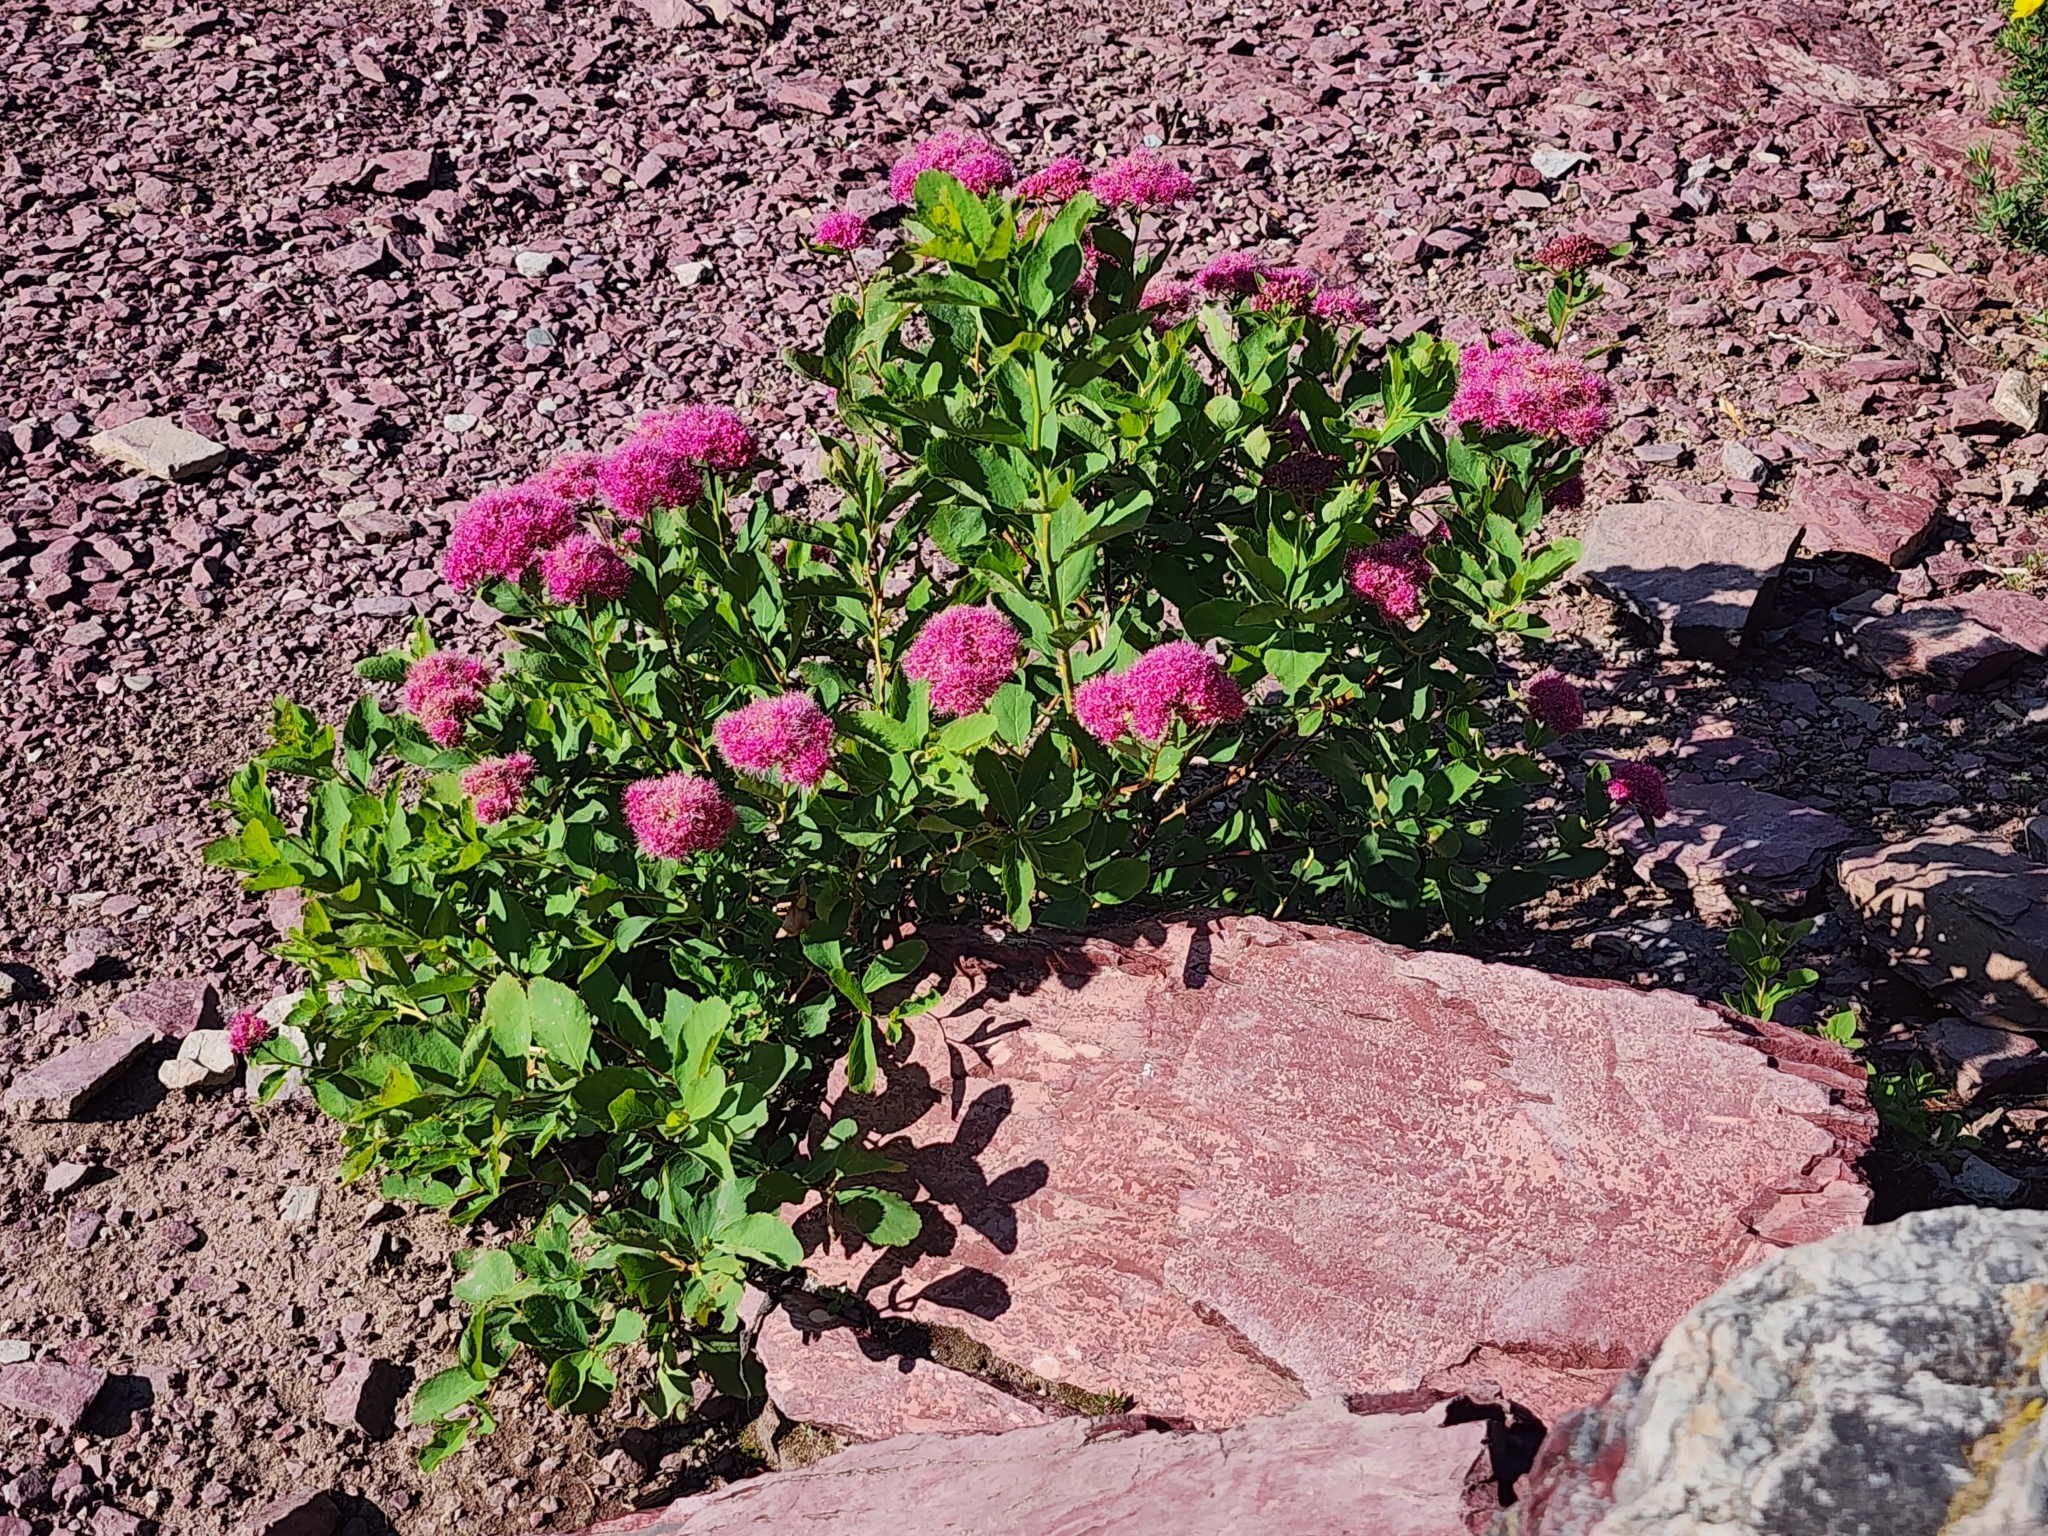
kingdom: Plantae
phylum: Tracheophyta
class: Magnoliopsida
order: Rosales
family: Rosaceae
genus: Spiraea
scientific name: Spiraea splendens
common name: Subalpine meadowsweet
